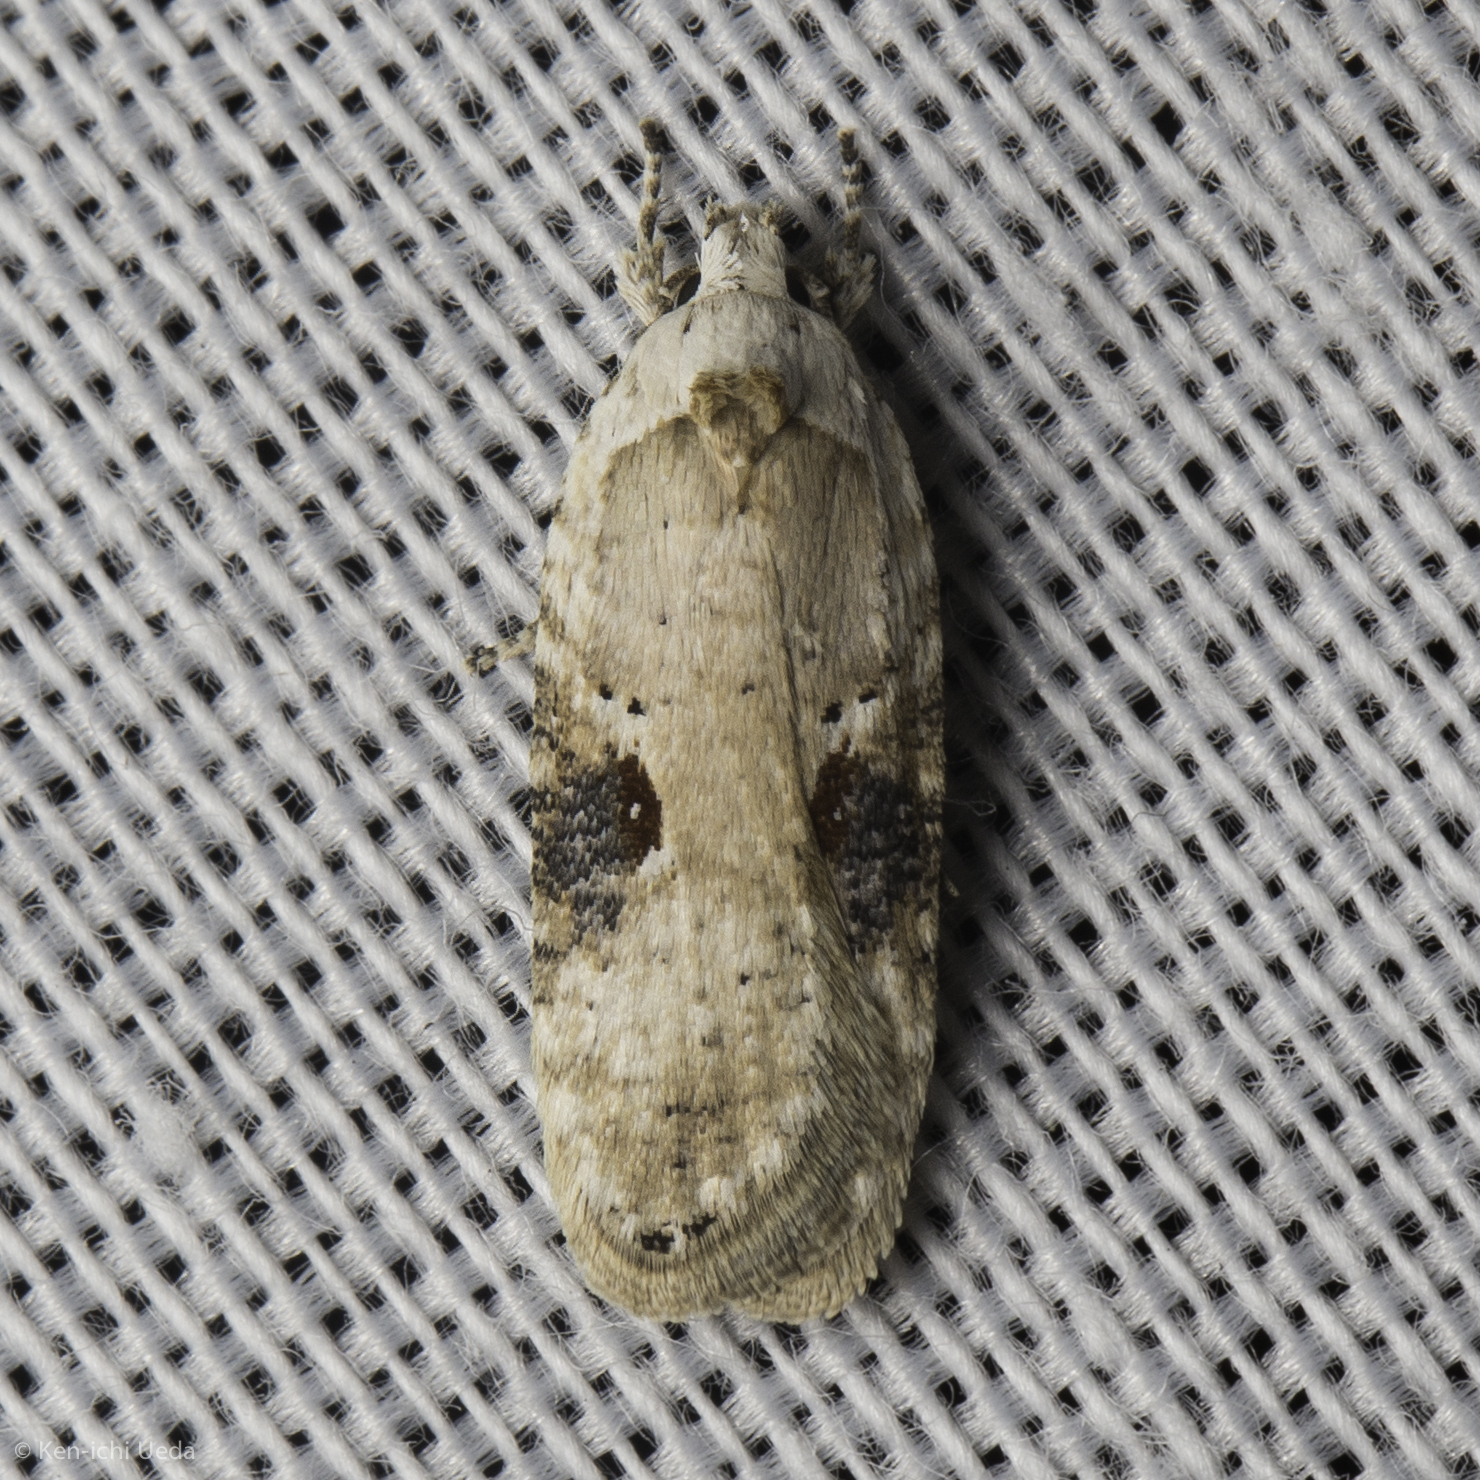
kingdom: Animalia
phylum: Arthropoda
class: Insecta
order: Lepidoptera
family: Depressariidae
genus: Agonopterix
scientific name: Agonopterix alstroemeriana
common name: Moth
